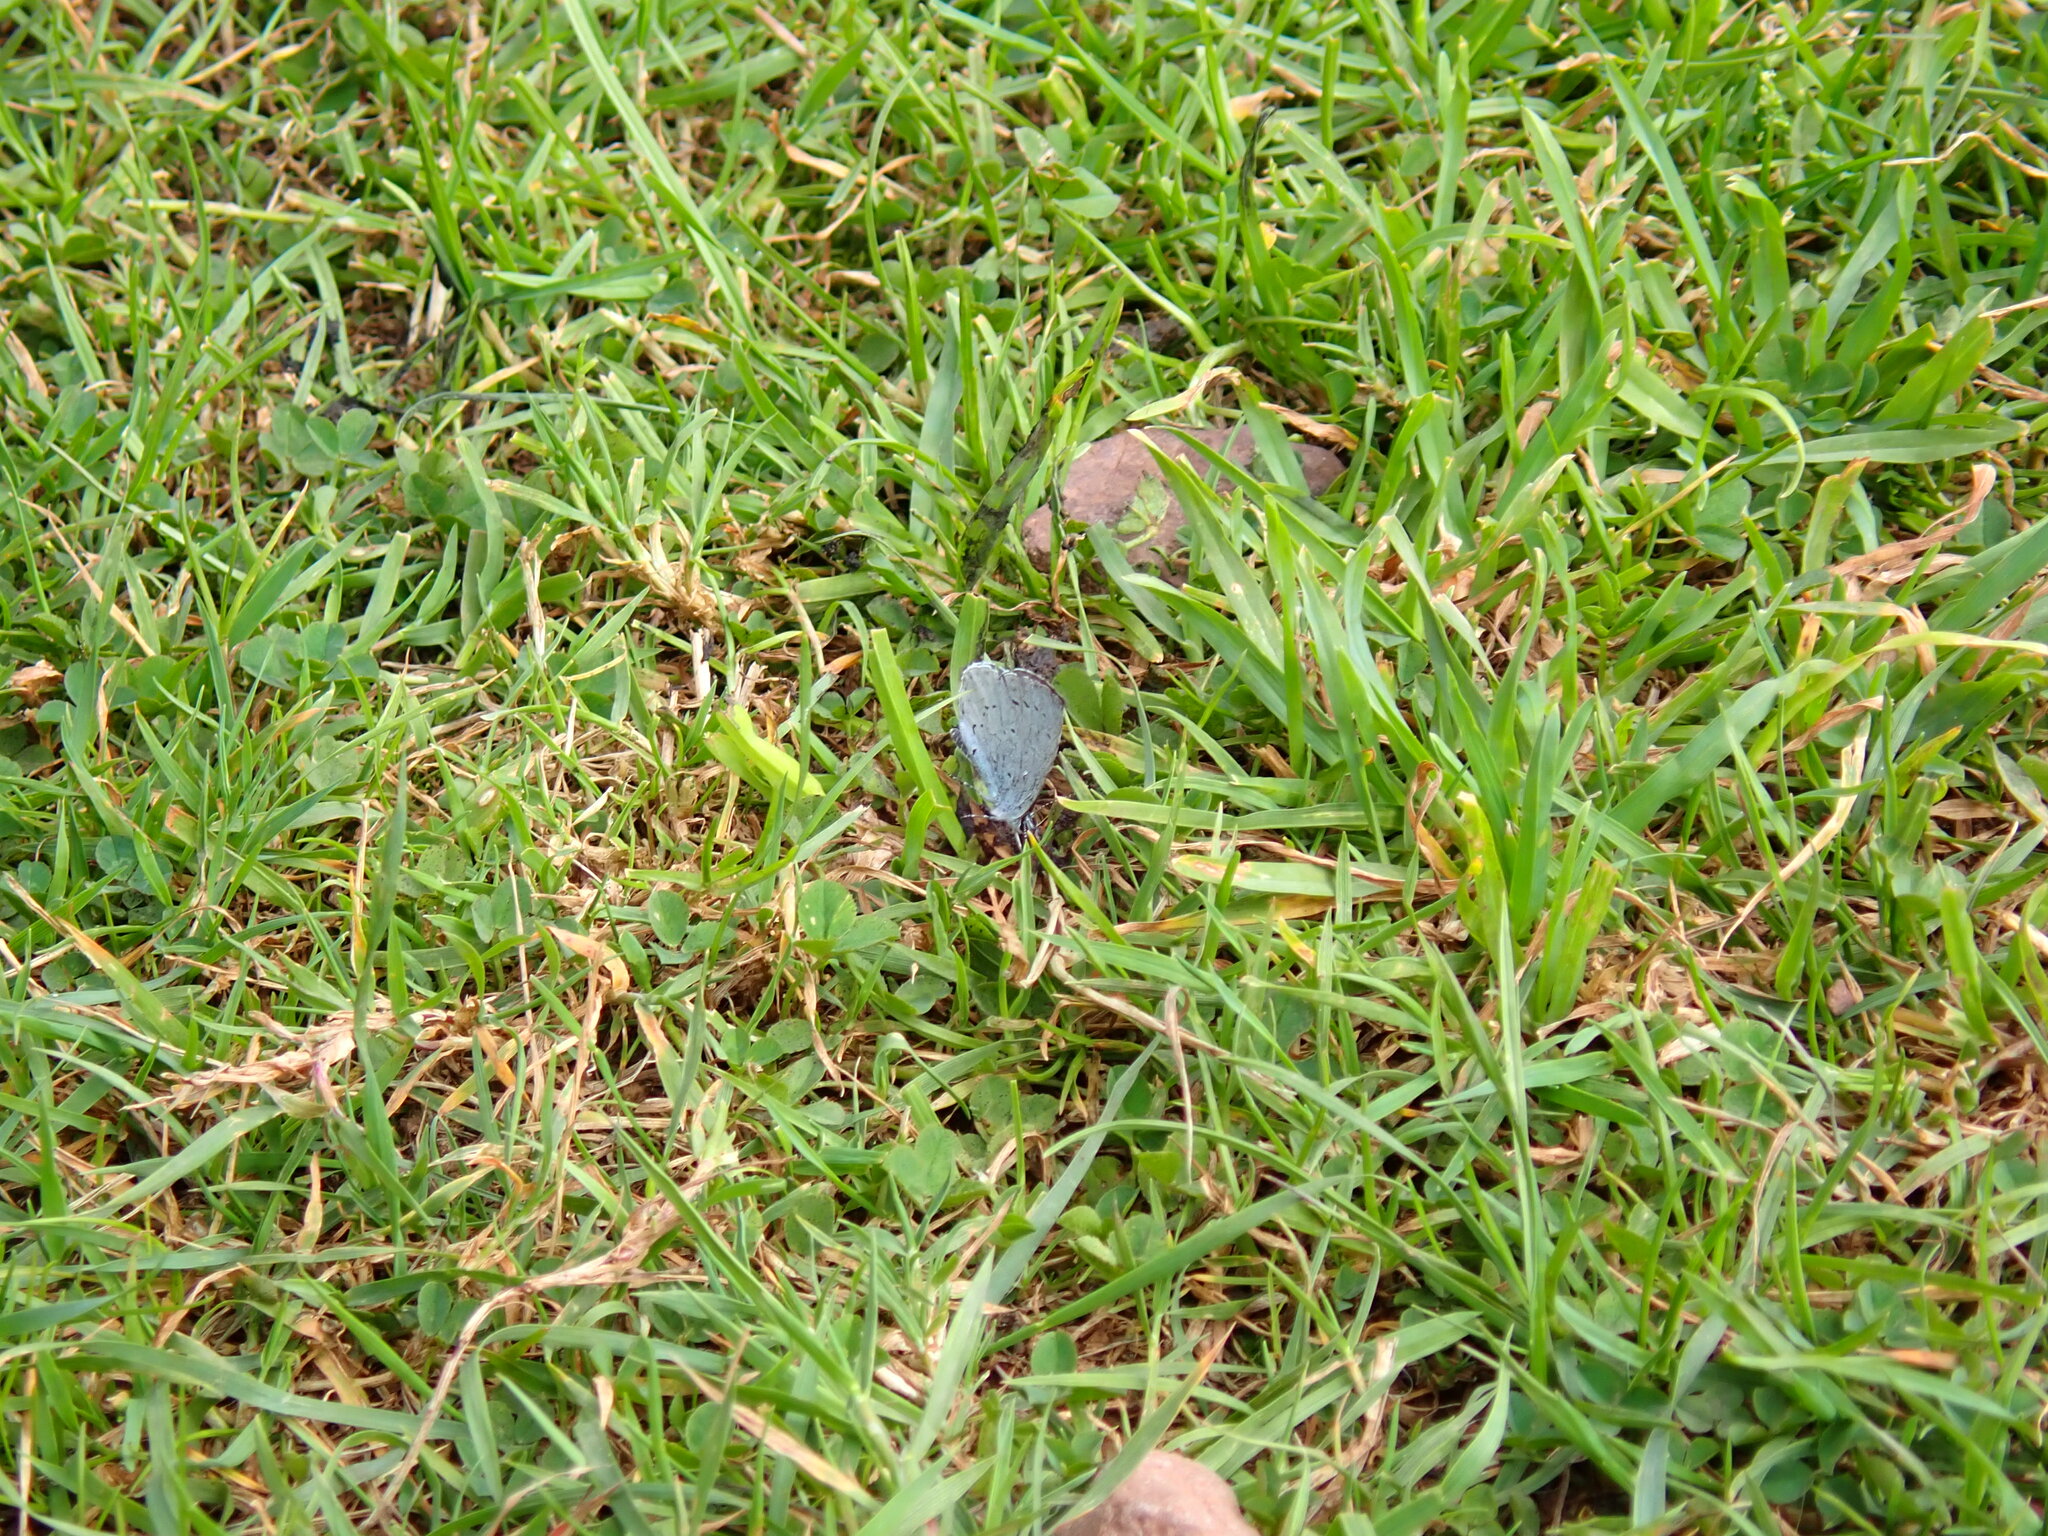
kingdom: Animalia
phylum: Arthropoda
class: Insecta
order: Lepidoptera
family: Lycaenidae
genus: Celastrina
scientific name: Celastrina argiolus
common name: Holly blue
